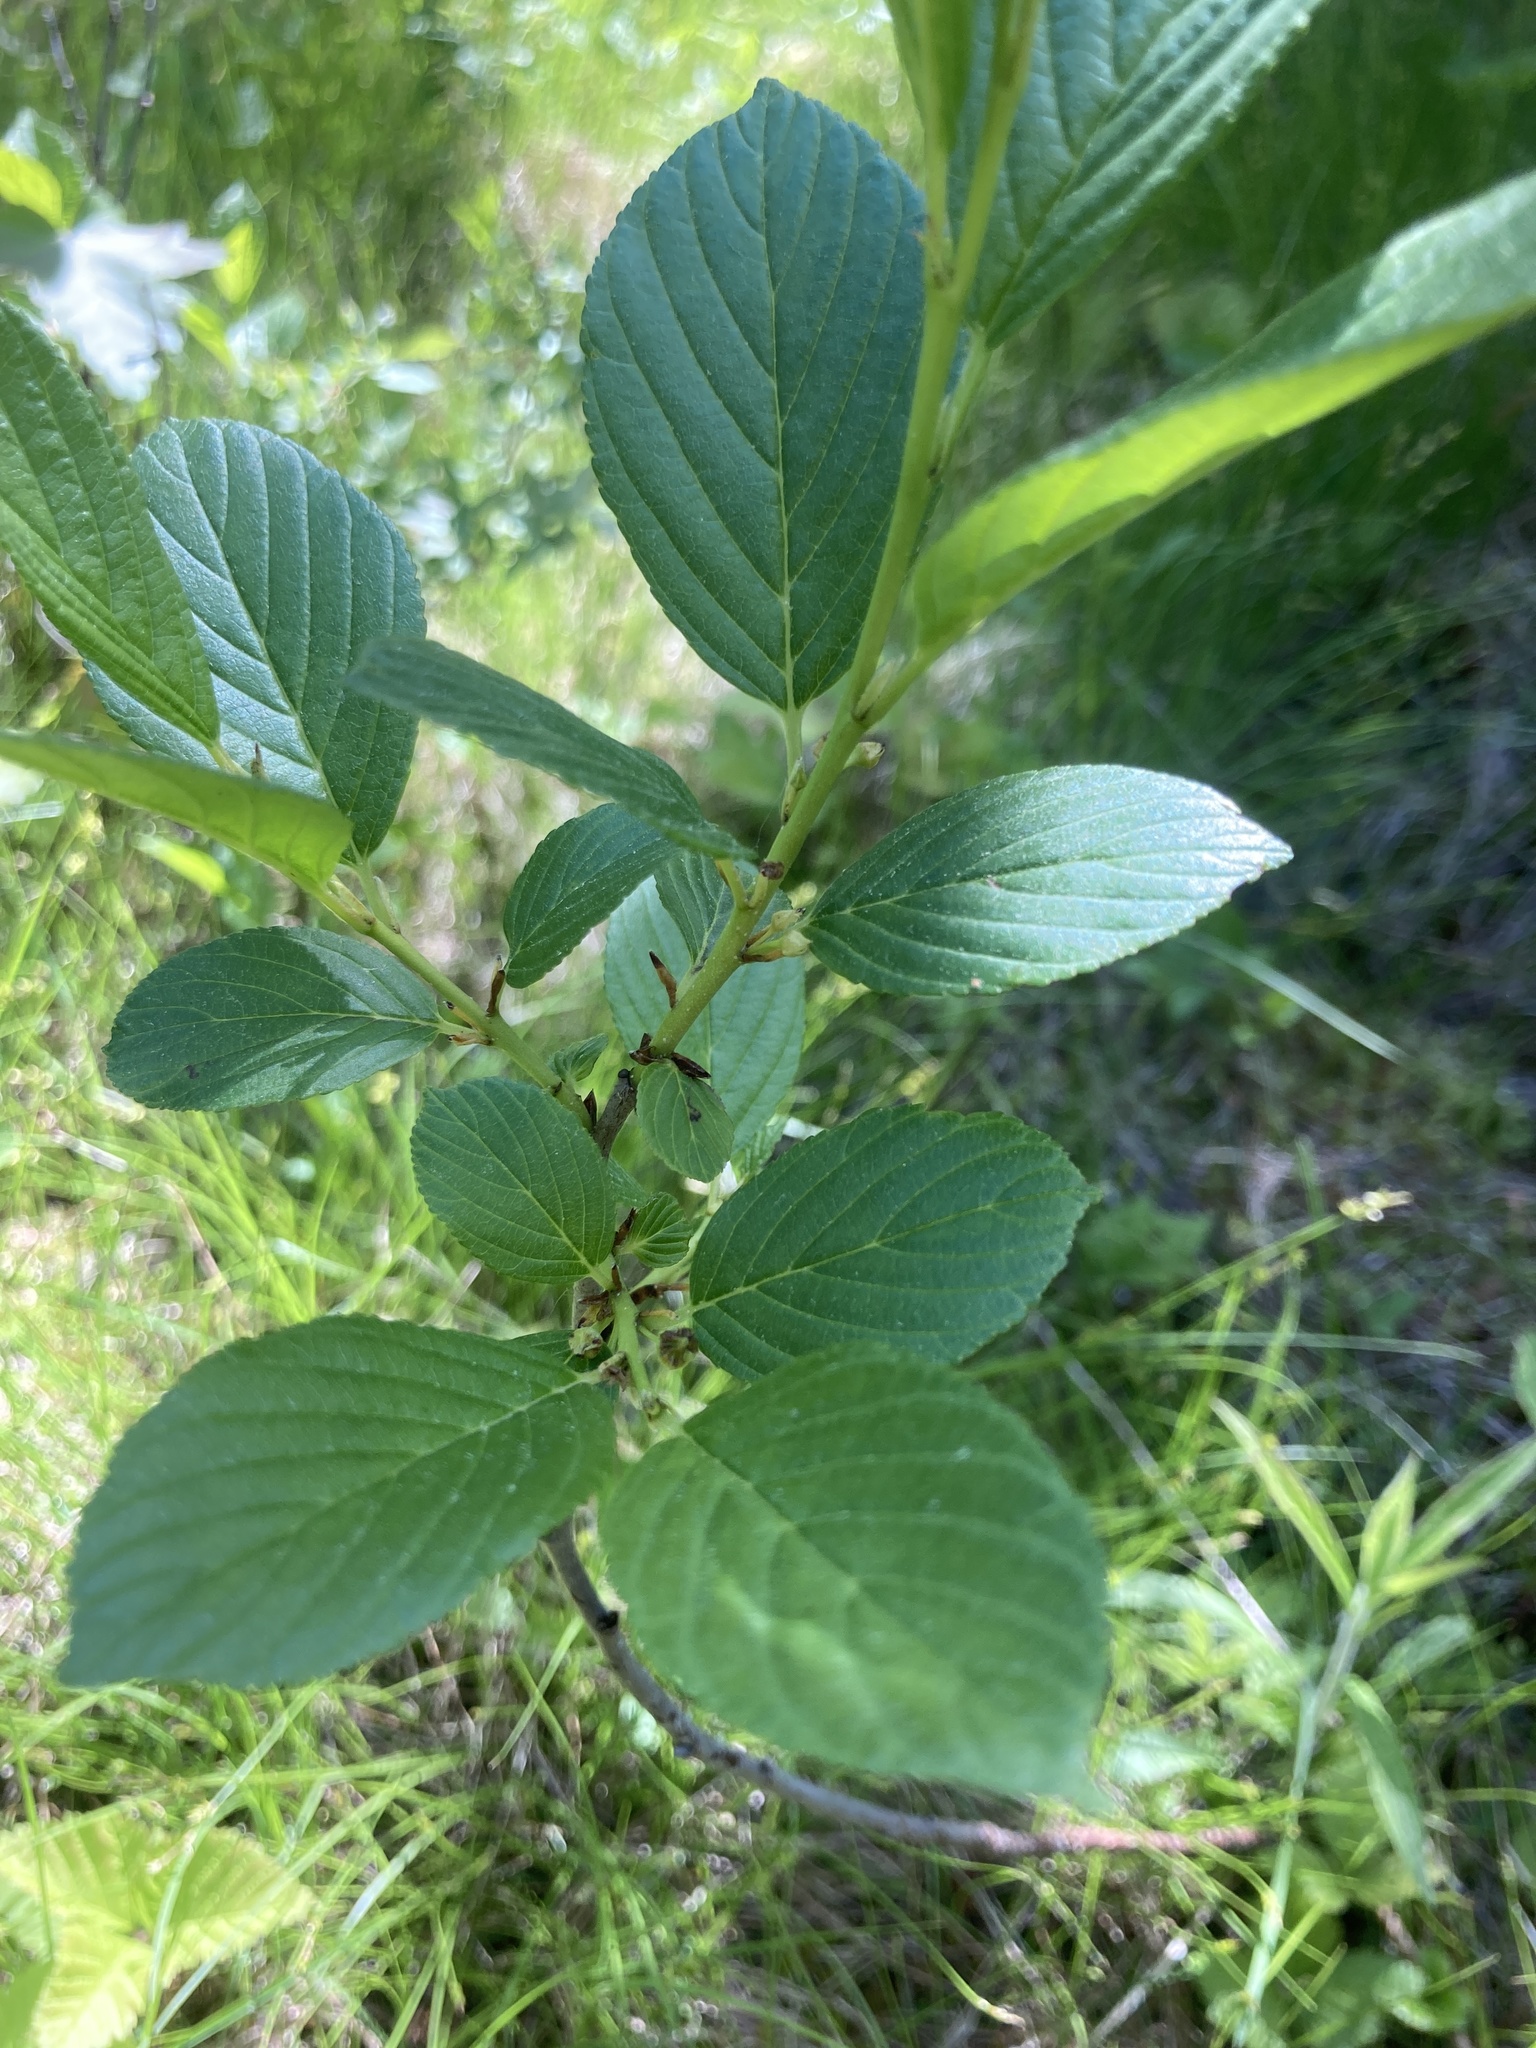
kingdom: Plantae
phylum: Tracheophyta
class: Magnoliopsida
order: Rosales
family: Rhamnaceae
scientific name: Rhamnaceae
